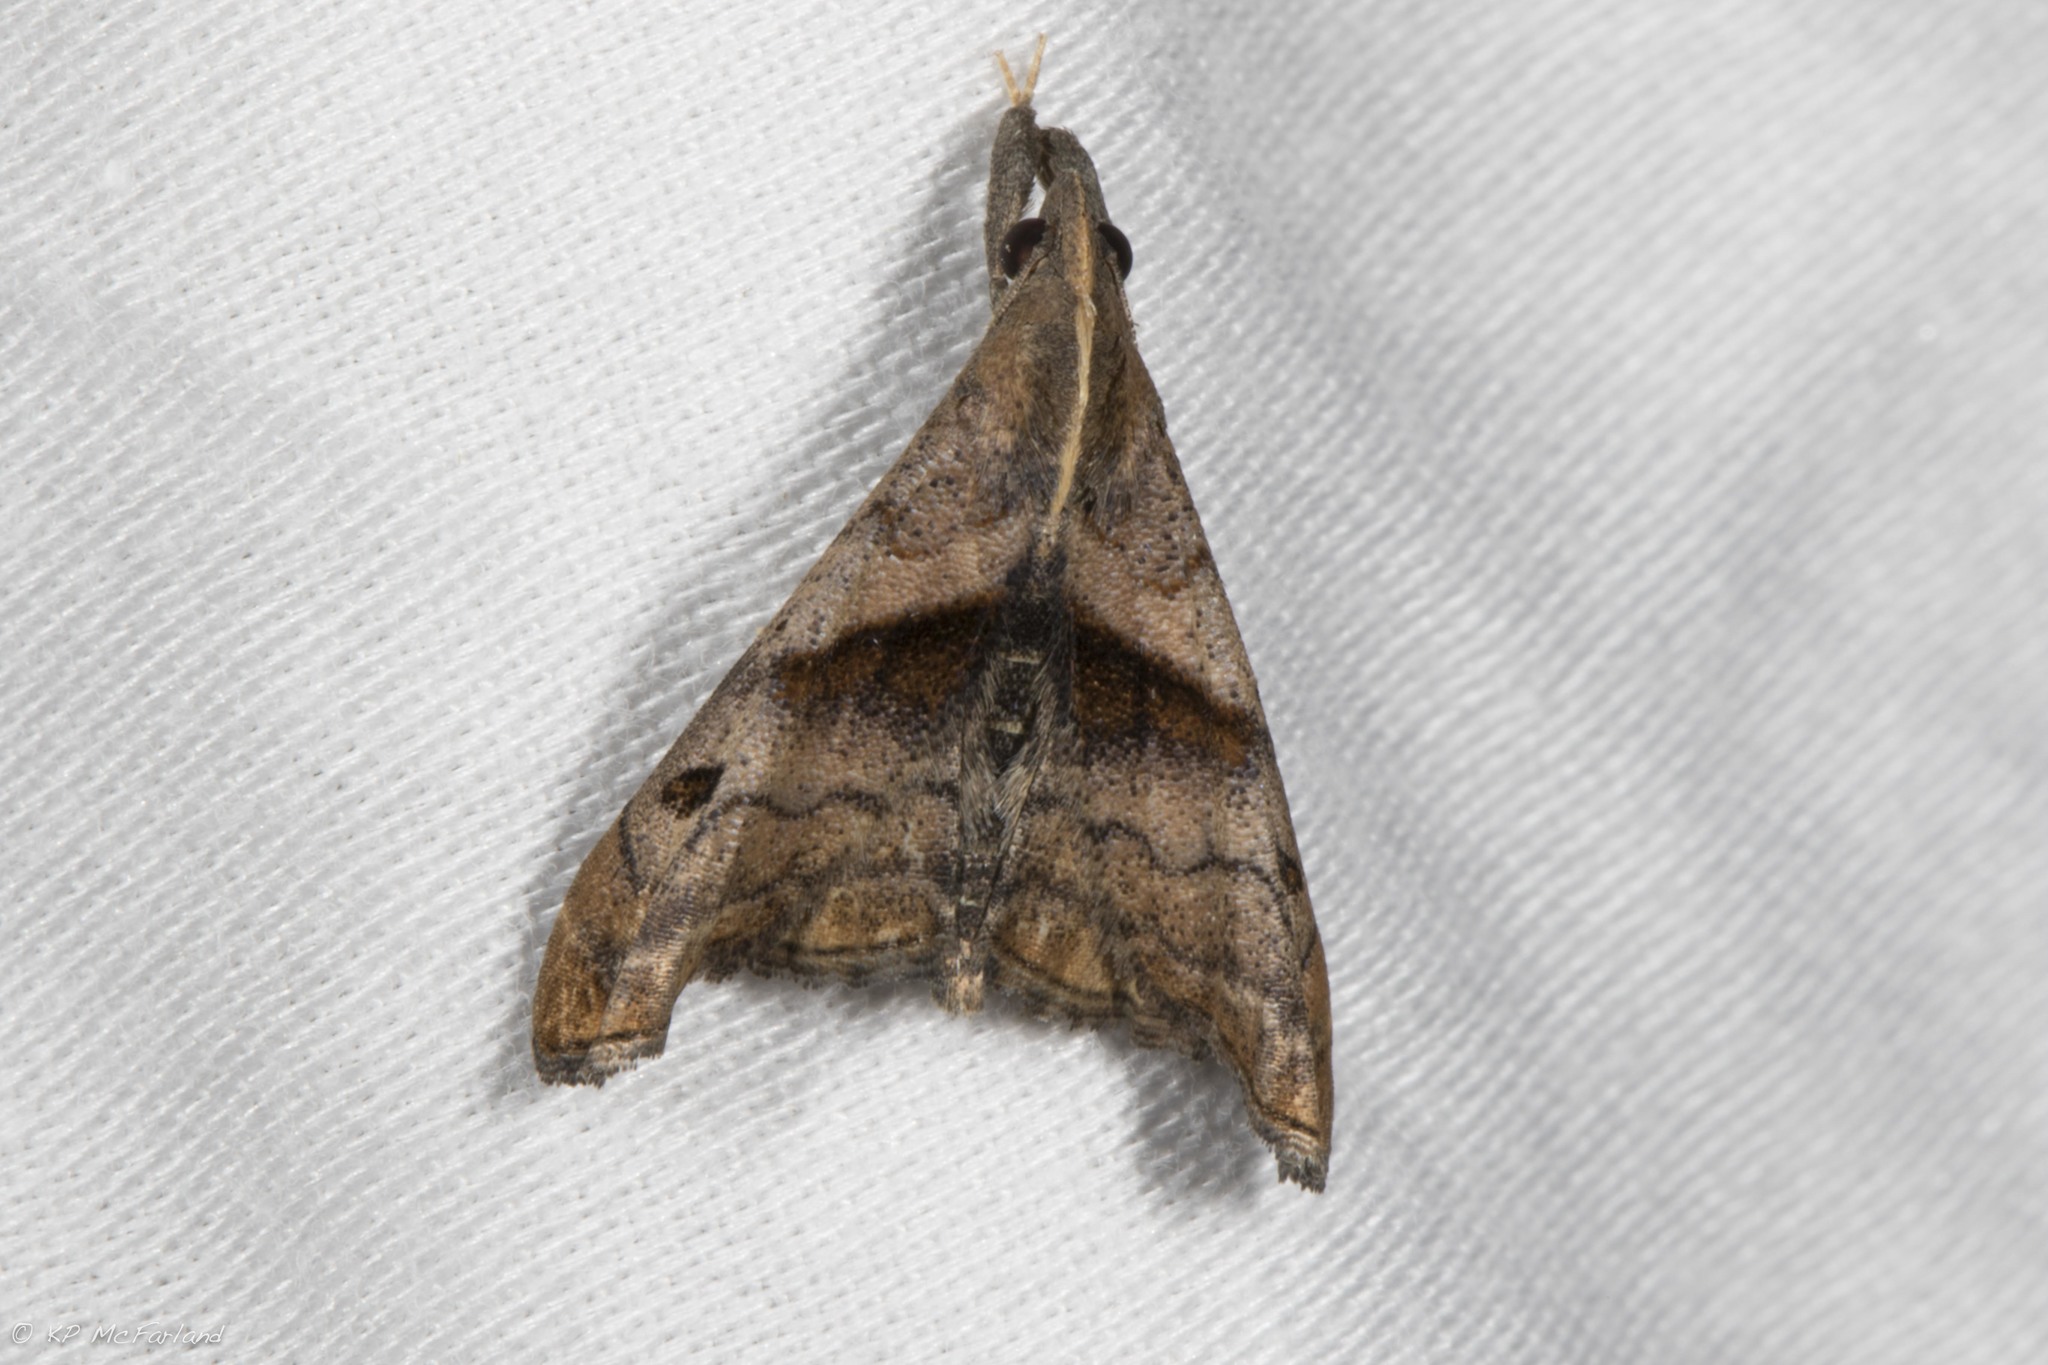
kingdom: Animalia
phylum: Arthropoda
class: Insecta
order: Lepidoptera
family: Erebidae
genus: Palthis
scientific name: Palthis angulalis
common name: Dark-spotted palthis moth
